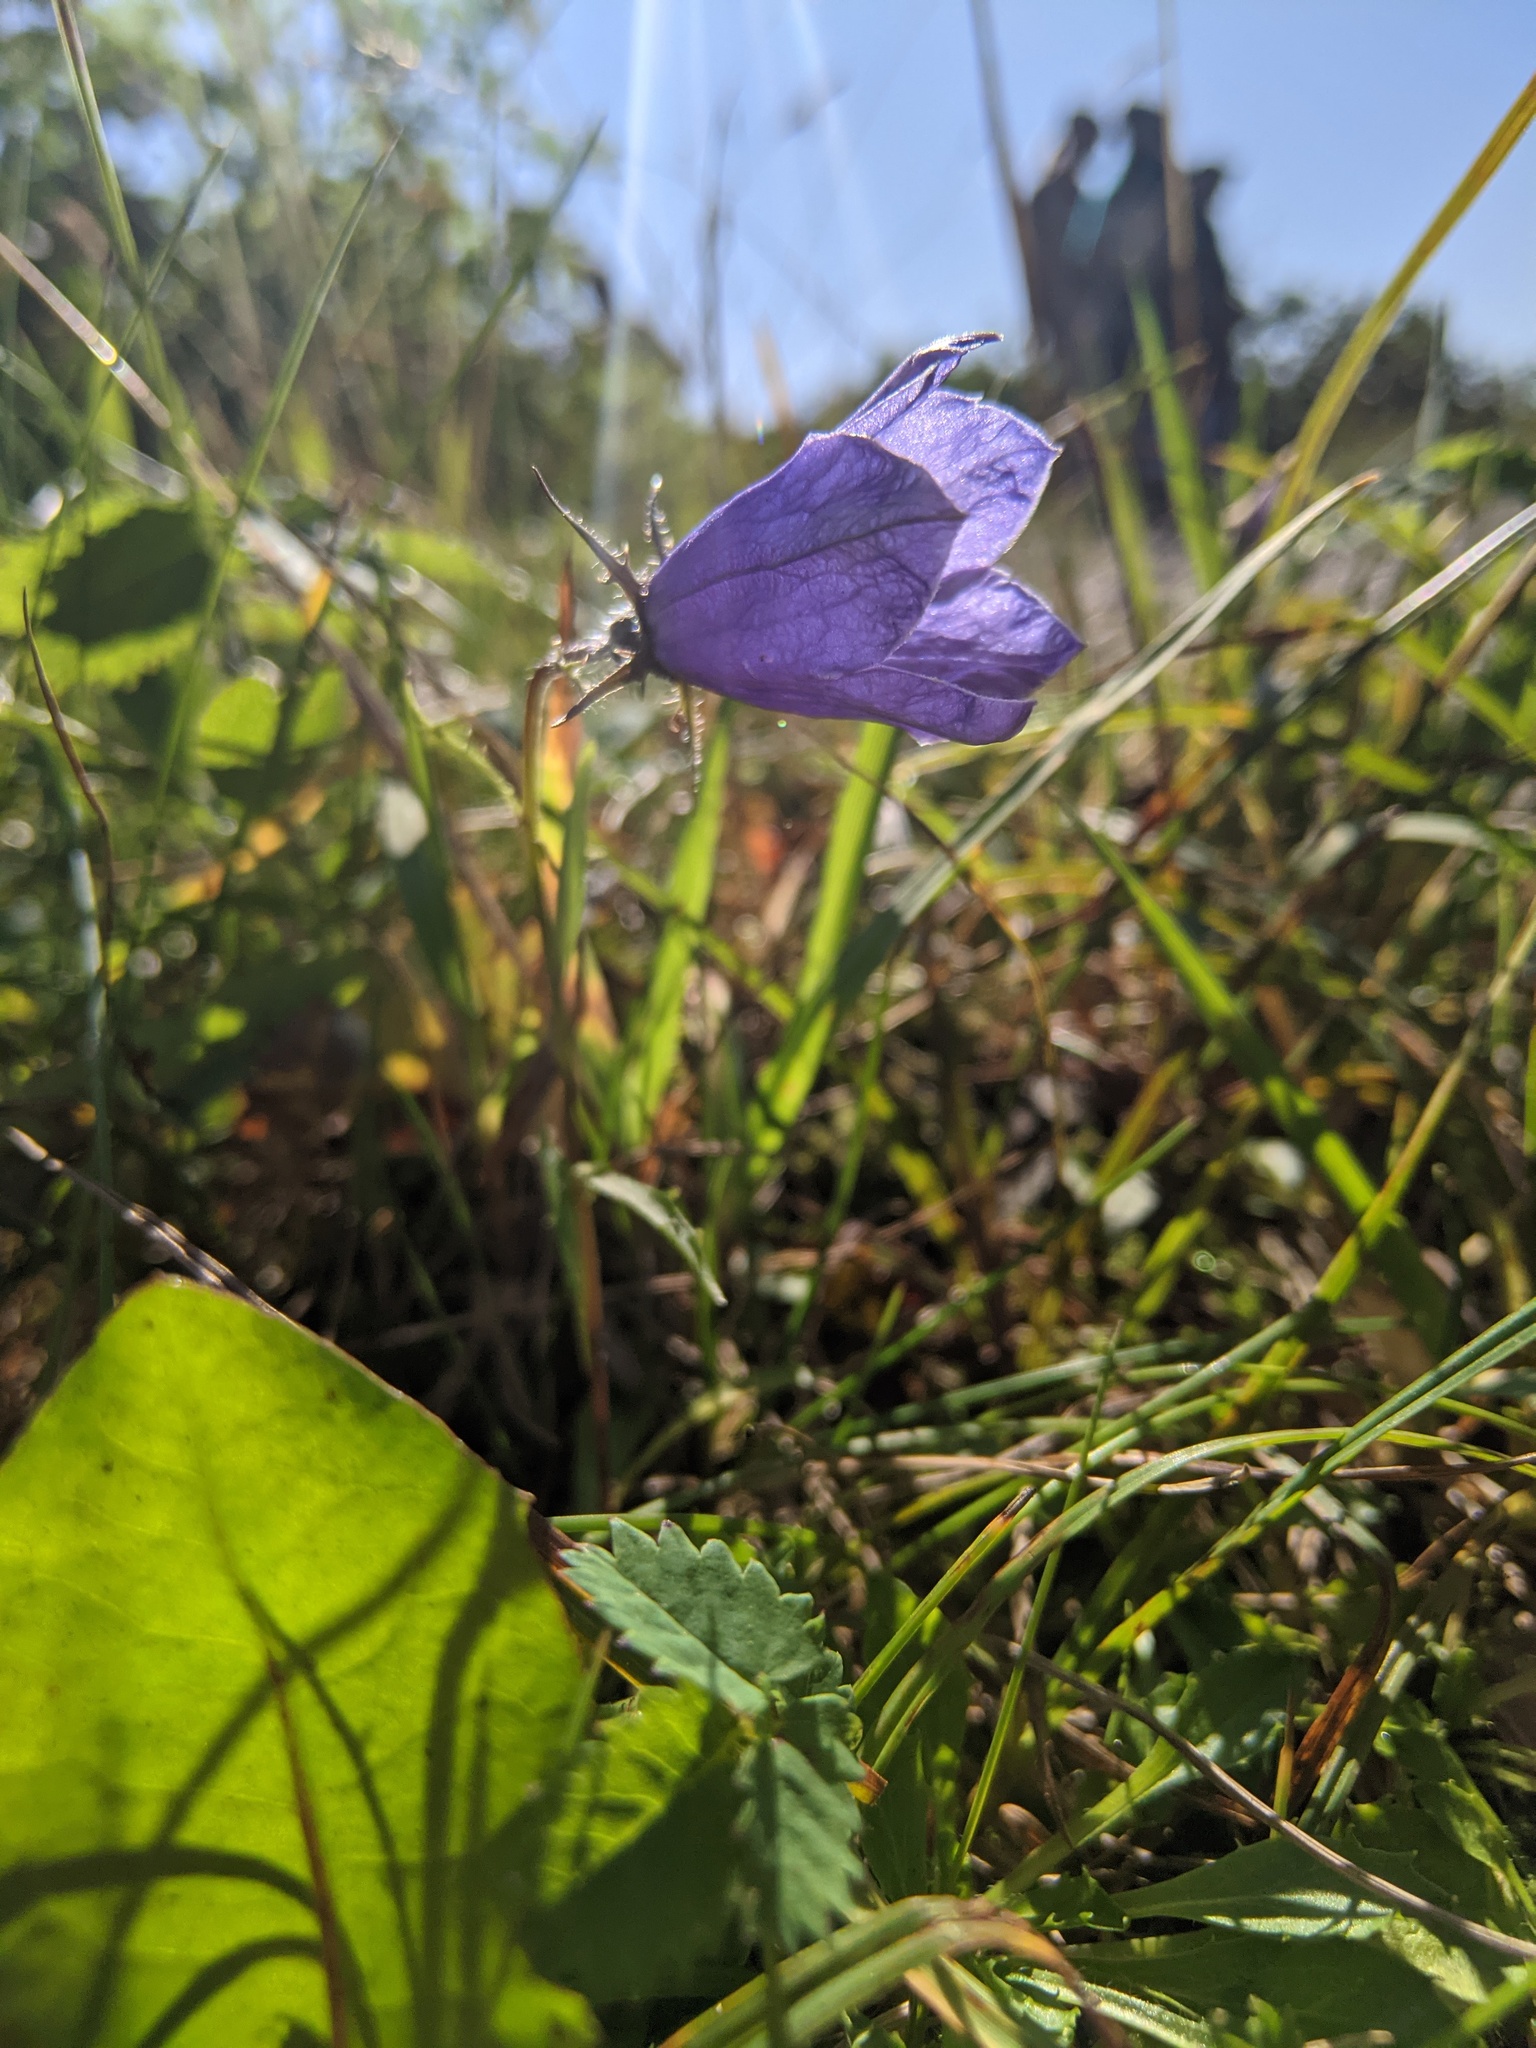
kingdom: Plantae
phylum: Tracheophyta
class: Magnoliopsida
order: Asterales
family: Campanulaceae
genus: Campanula
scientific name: Campanula lasiocarpa
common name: Mountain harebell
